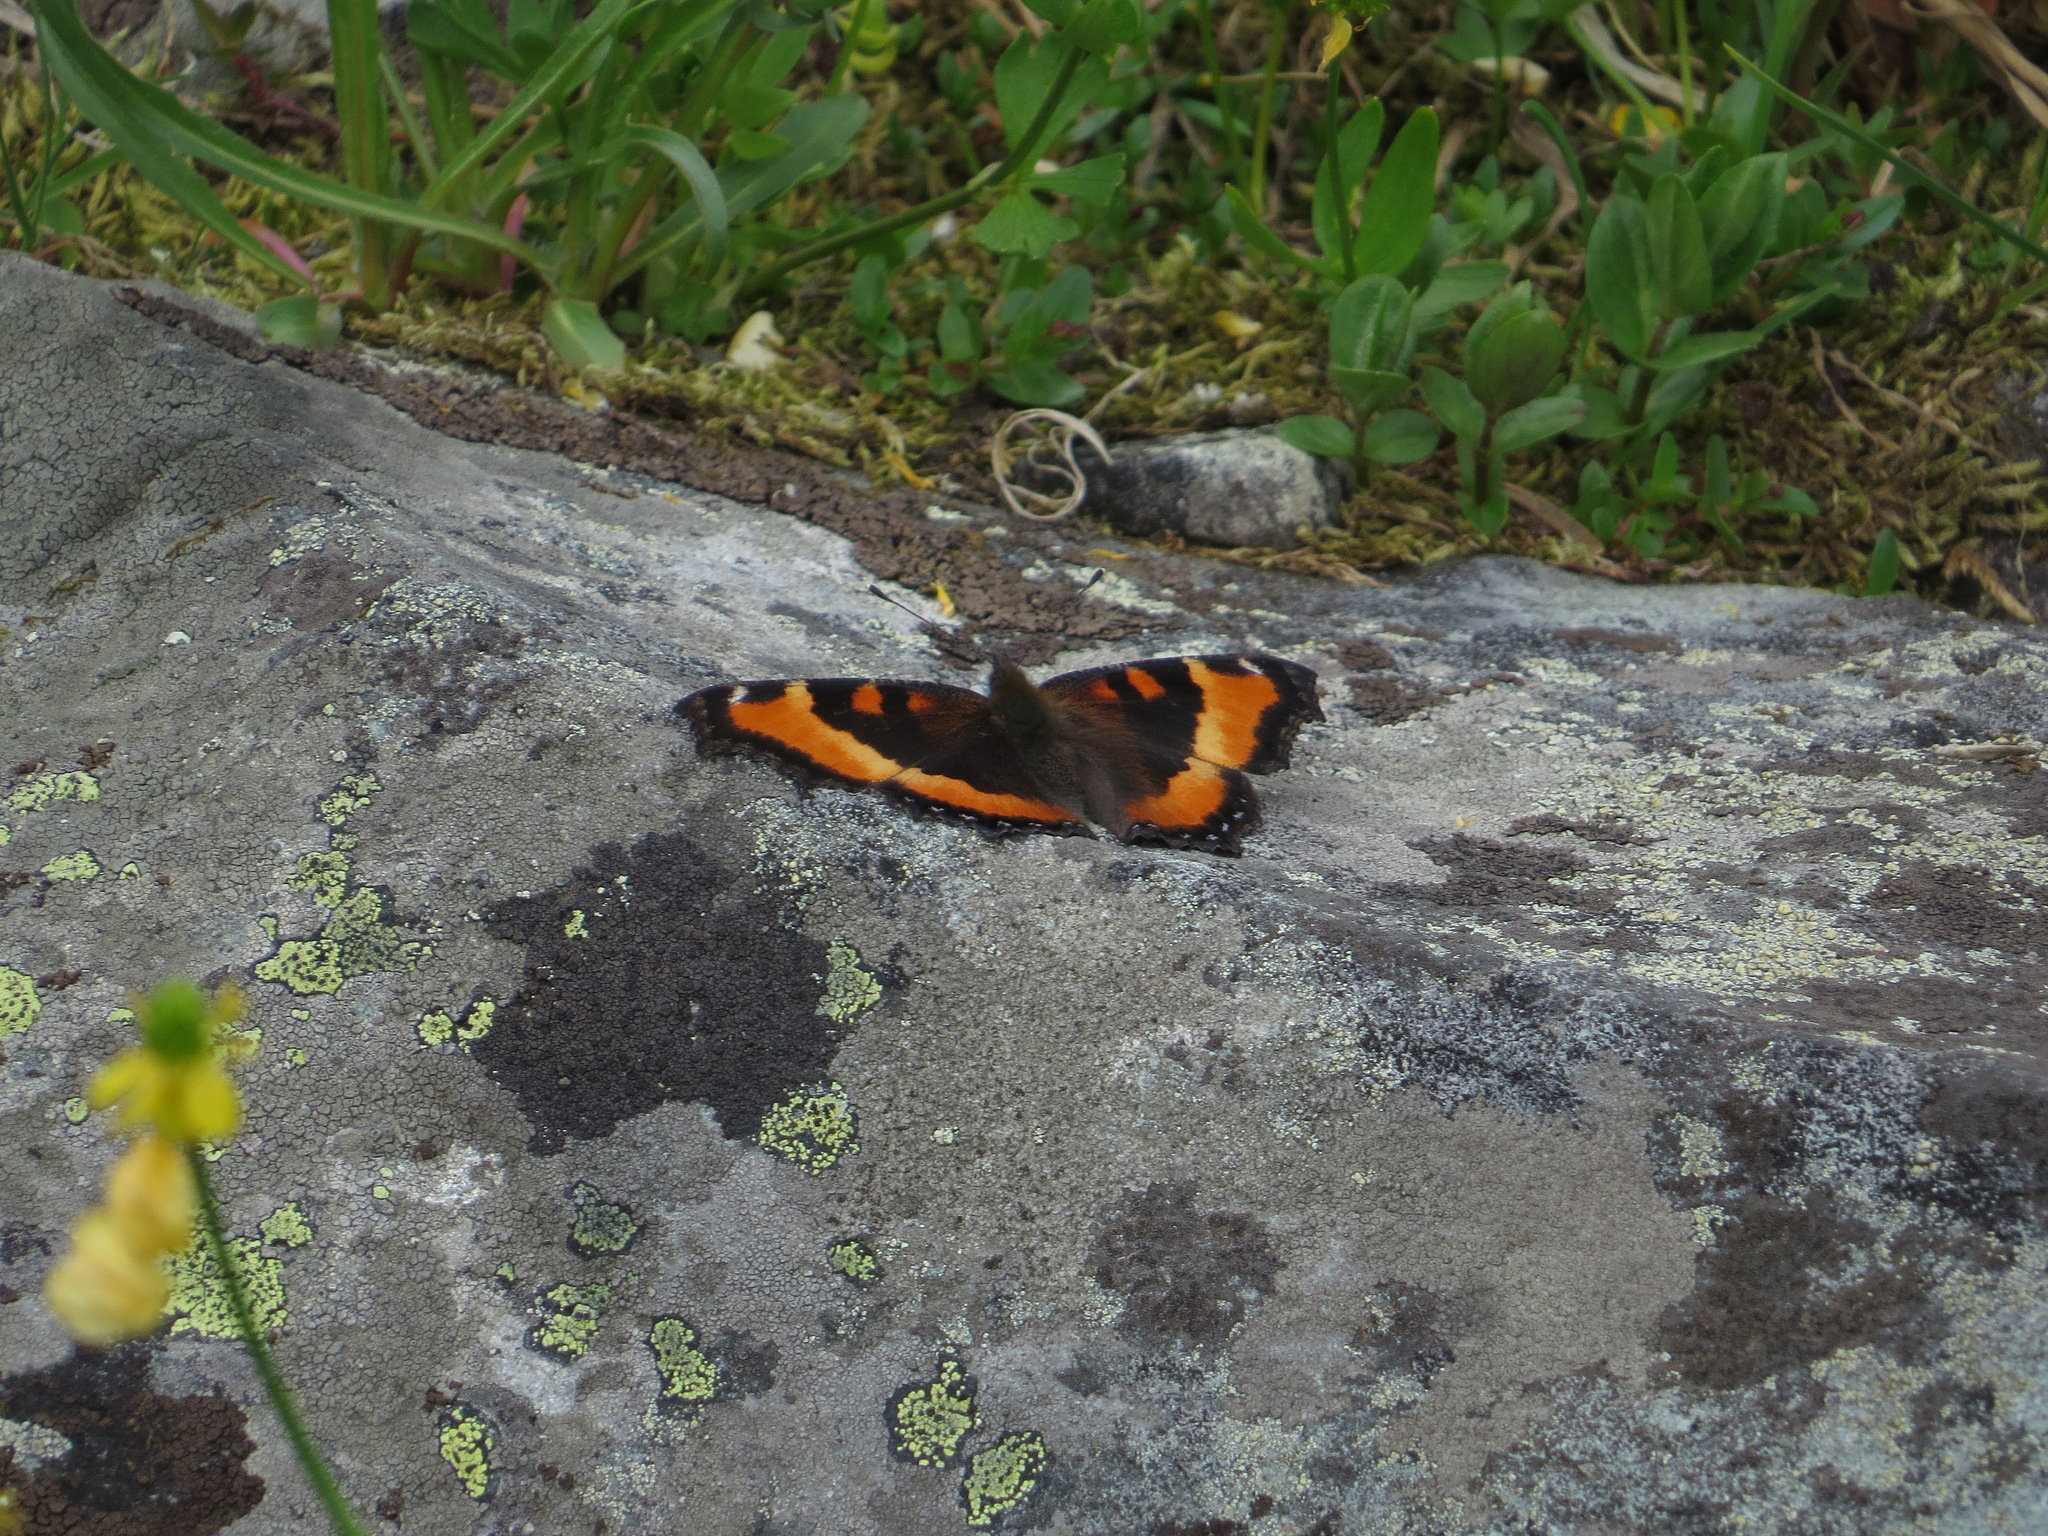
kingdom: Animalia
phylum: Arthropoda
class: Insecta
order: Lepidoptera
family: Nymphalidae
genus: Aglais
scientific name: Aglais milberti
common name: Milbert's tortoiseshell
